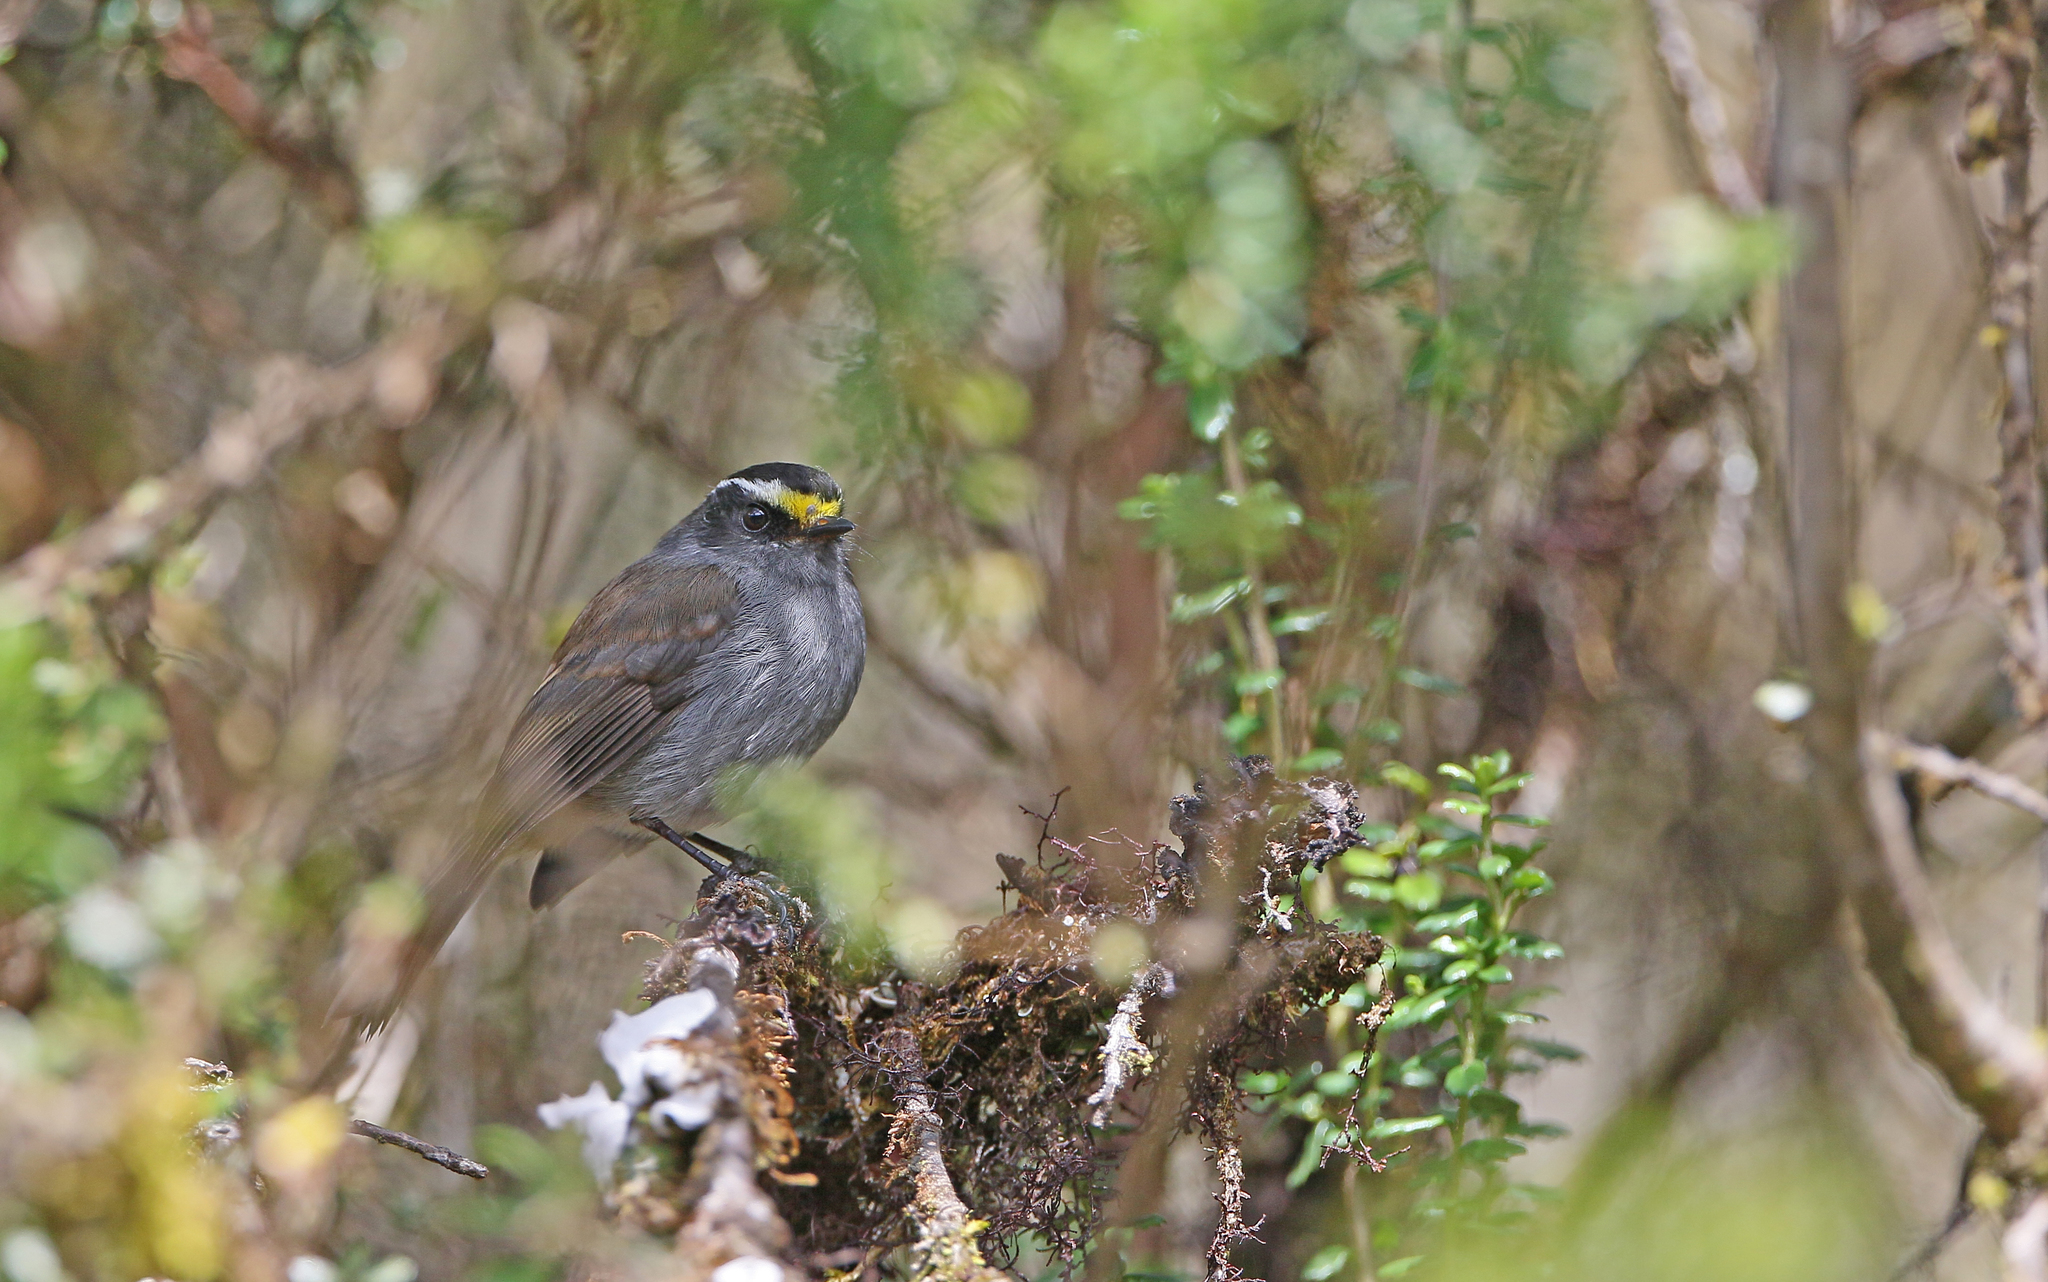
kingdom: Animalia
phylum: Chordata
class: Aves
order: Passeriformes
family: Tyrannidae
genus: Ochthoeca
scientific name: Ochthoeca frontalis
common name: Crowned chat-tyrant
